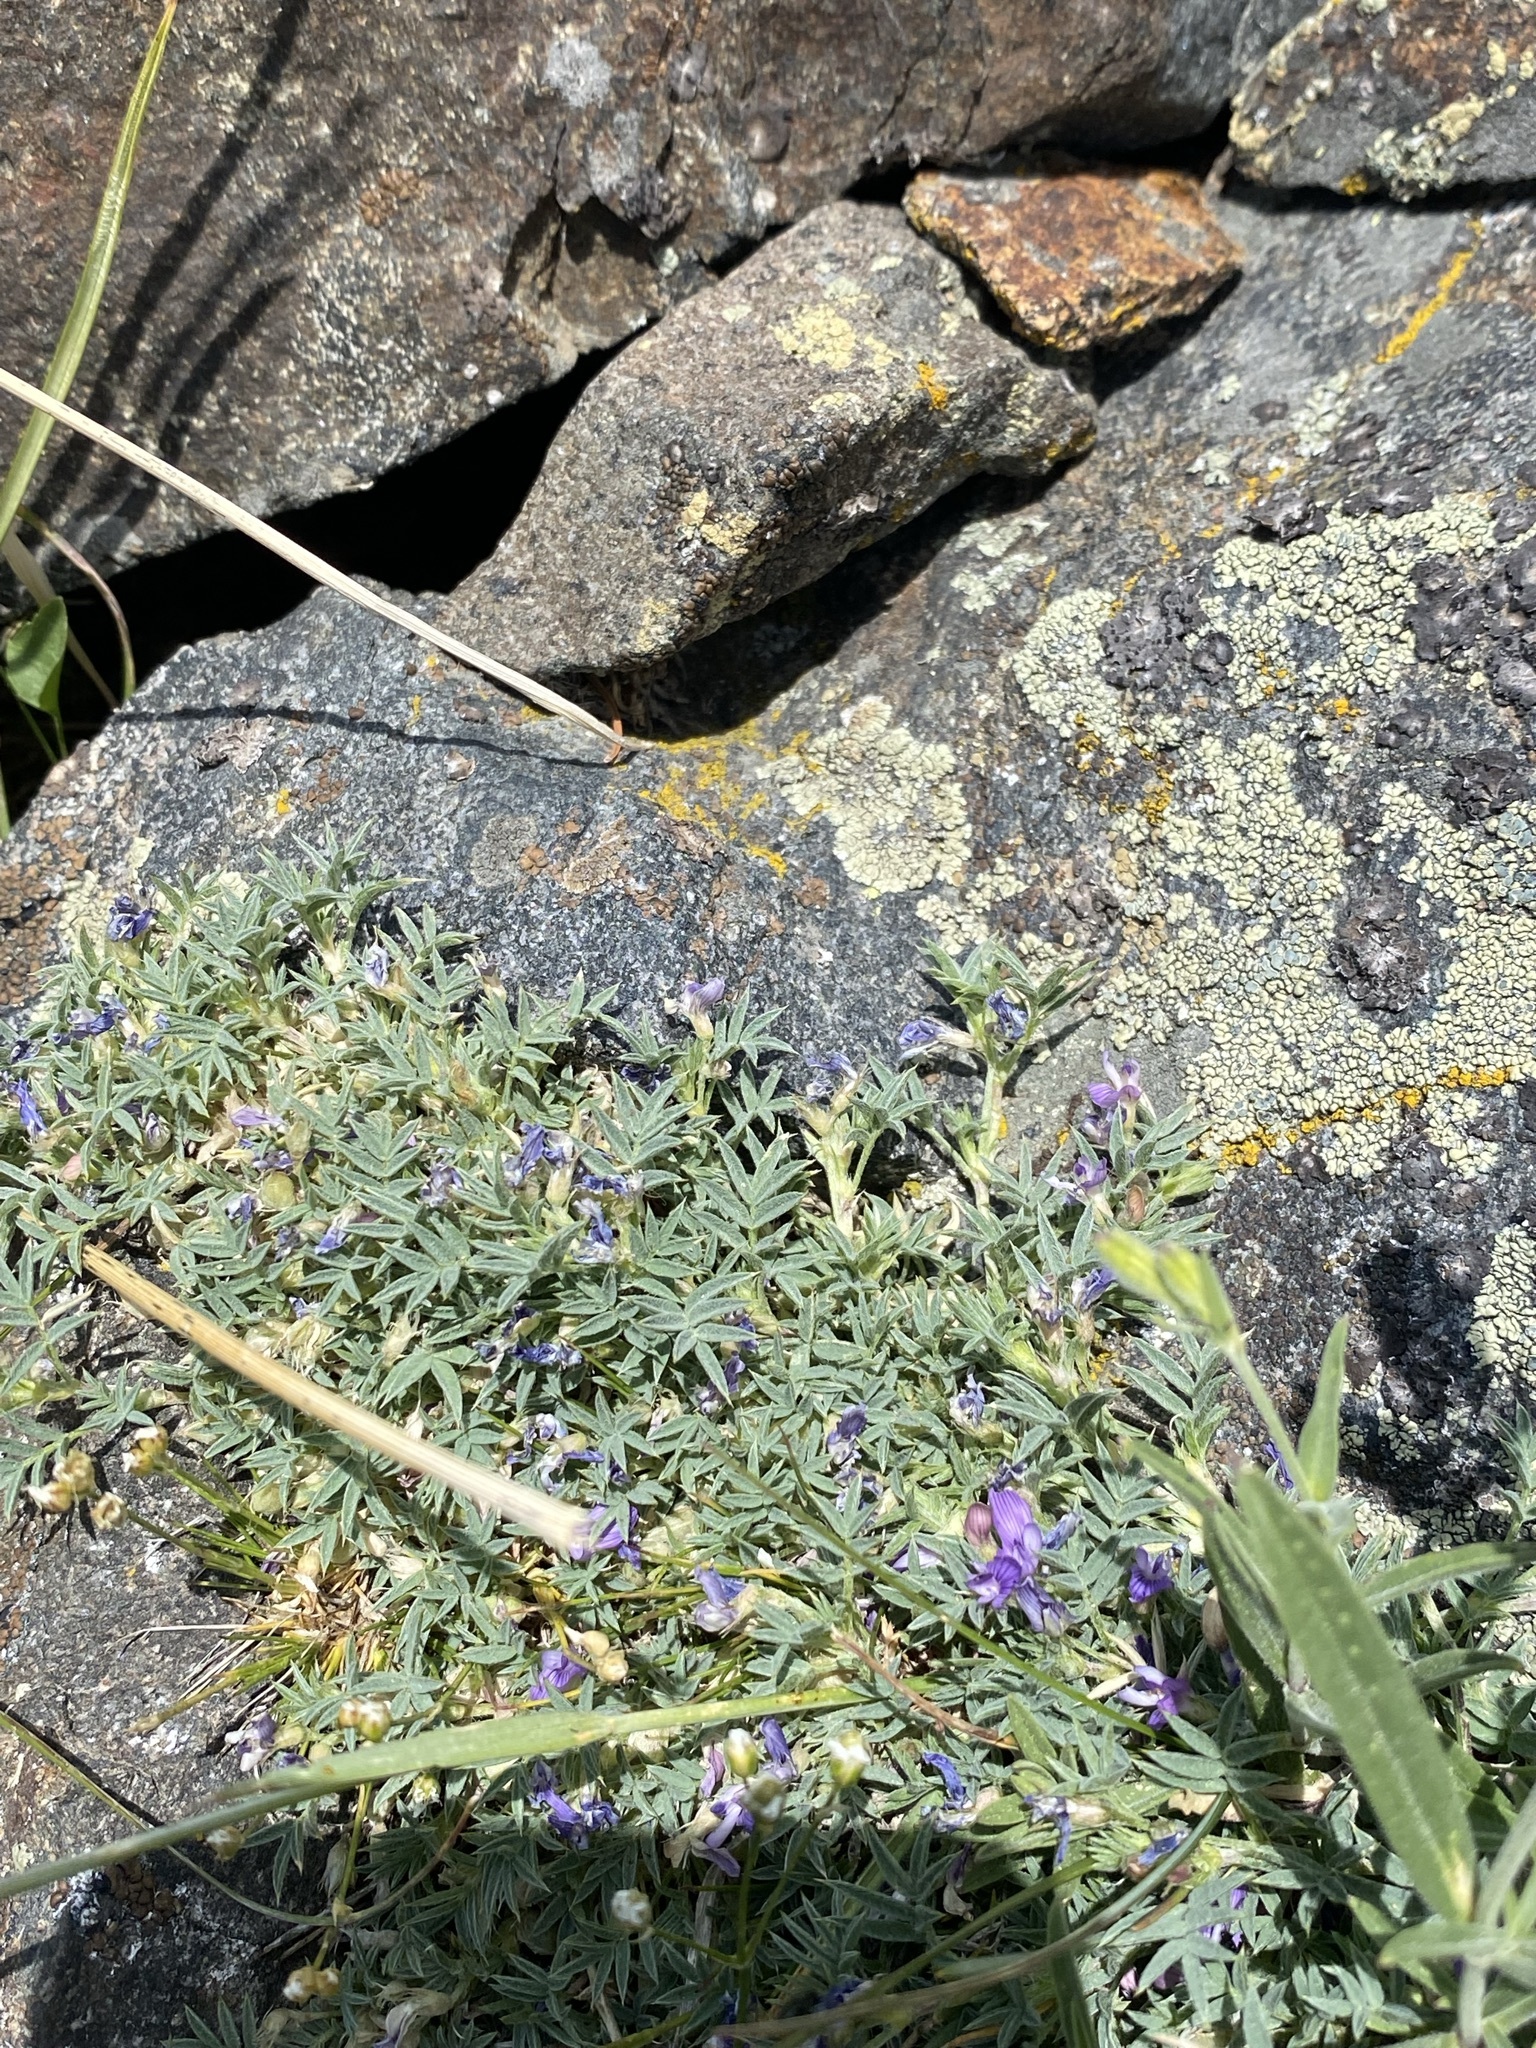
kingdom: Plantae
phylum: Tracheophyta
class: Magnoliopsida
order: Fabales
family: Fabaceae
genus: Astragalus
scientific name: Astragalus kentrophyta
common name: Prickly milk-vetch
